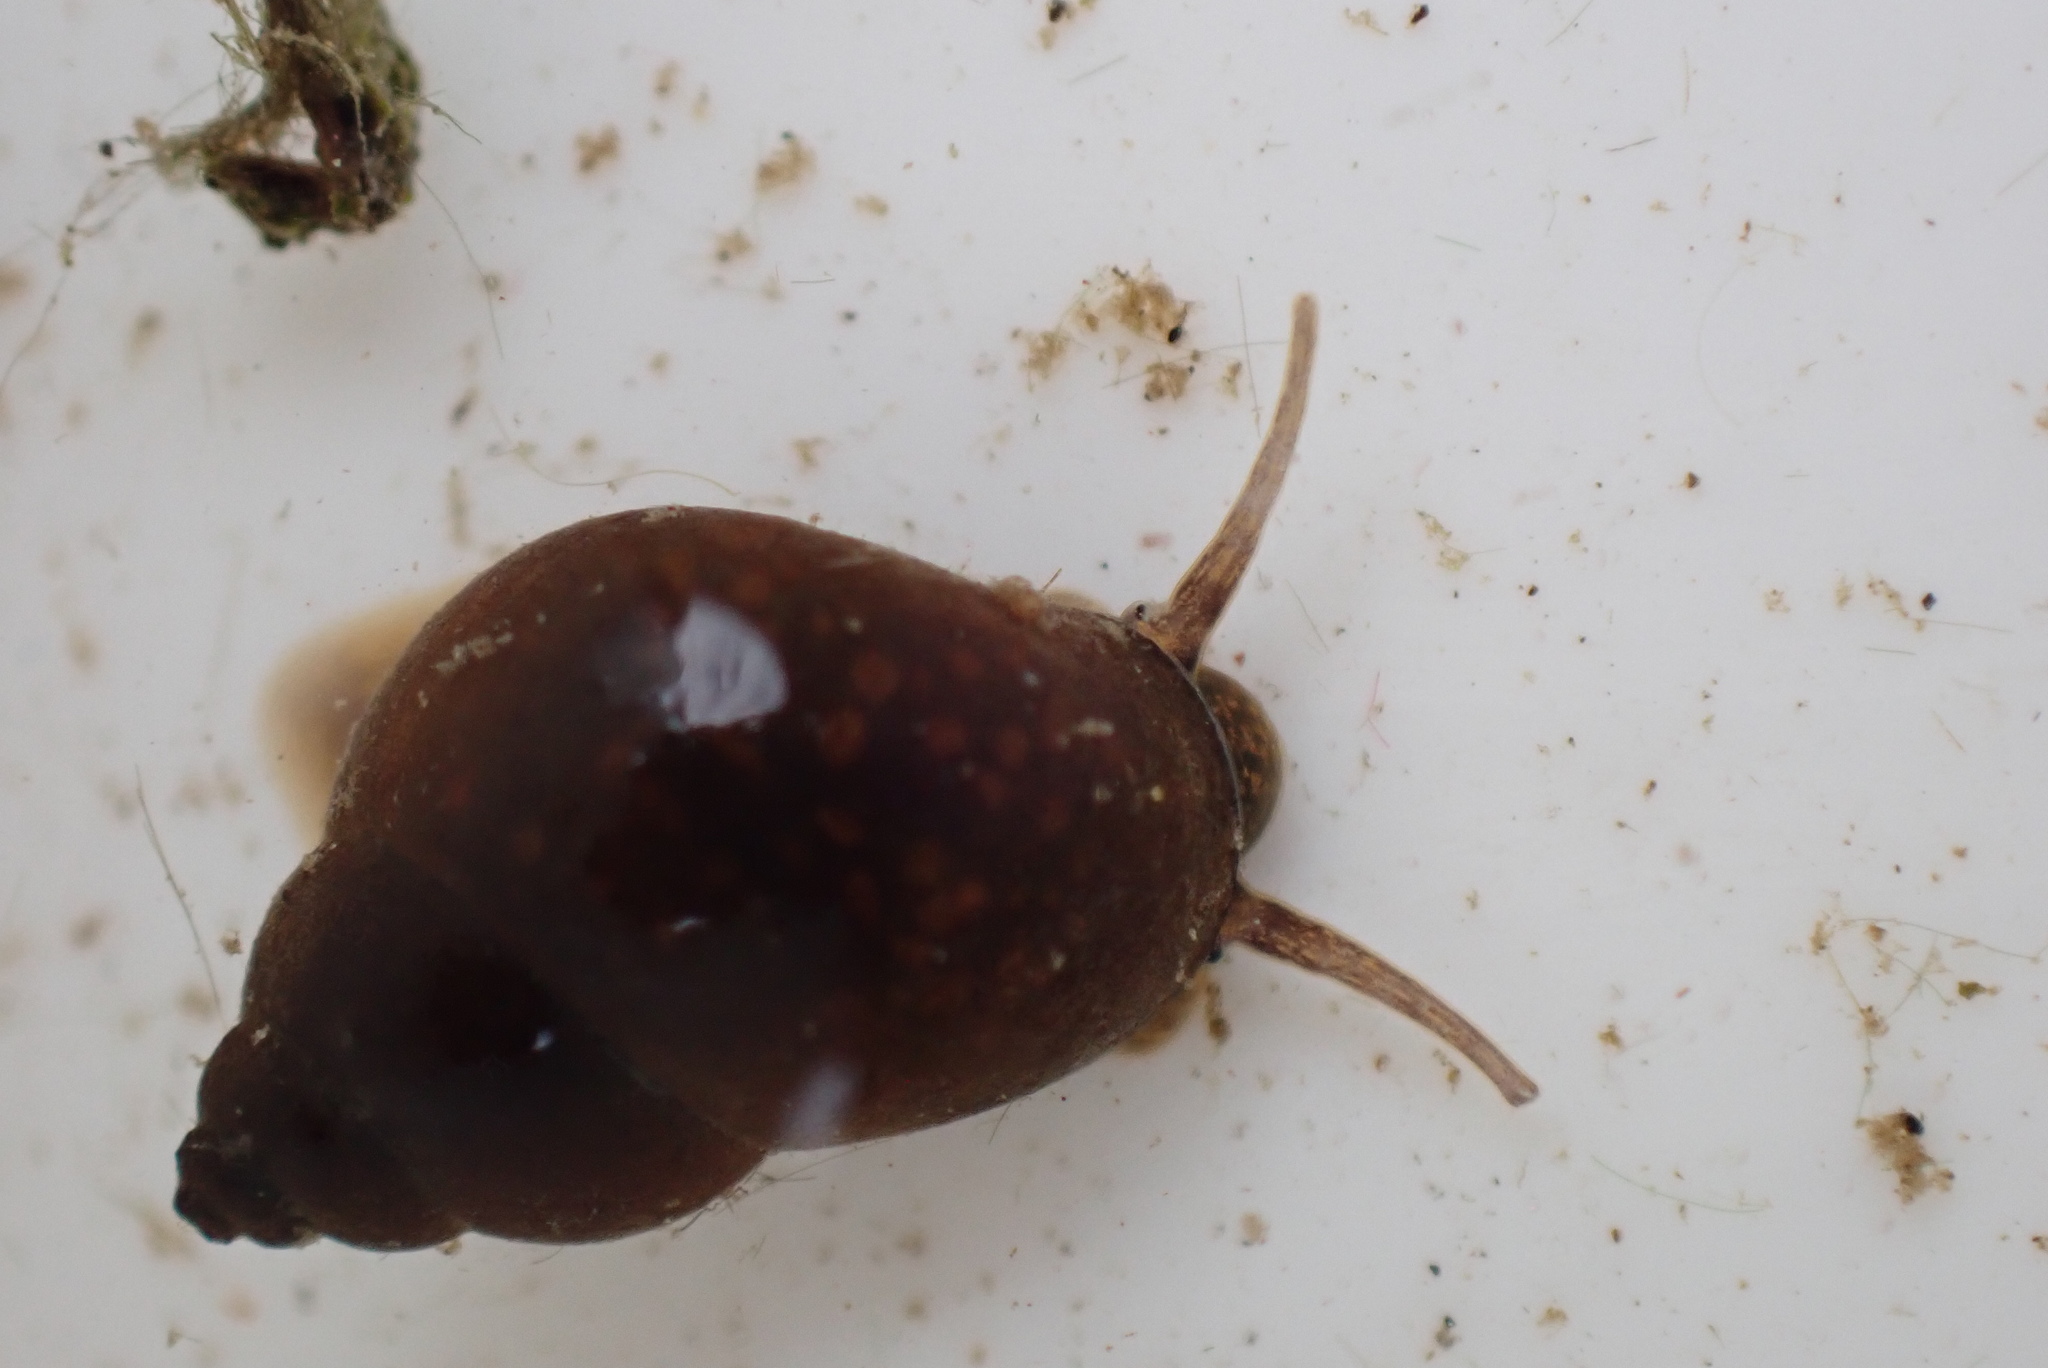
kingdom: Animalia
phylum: Mollusca
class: Gastropoda
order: Littorinimorpha
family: Bithyniidae
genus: Bithynia
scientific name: Bithynia tentaculata
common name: Common bithynia
